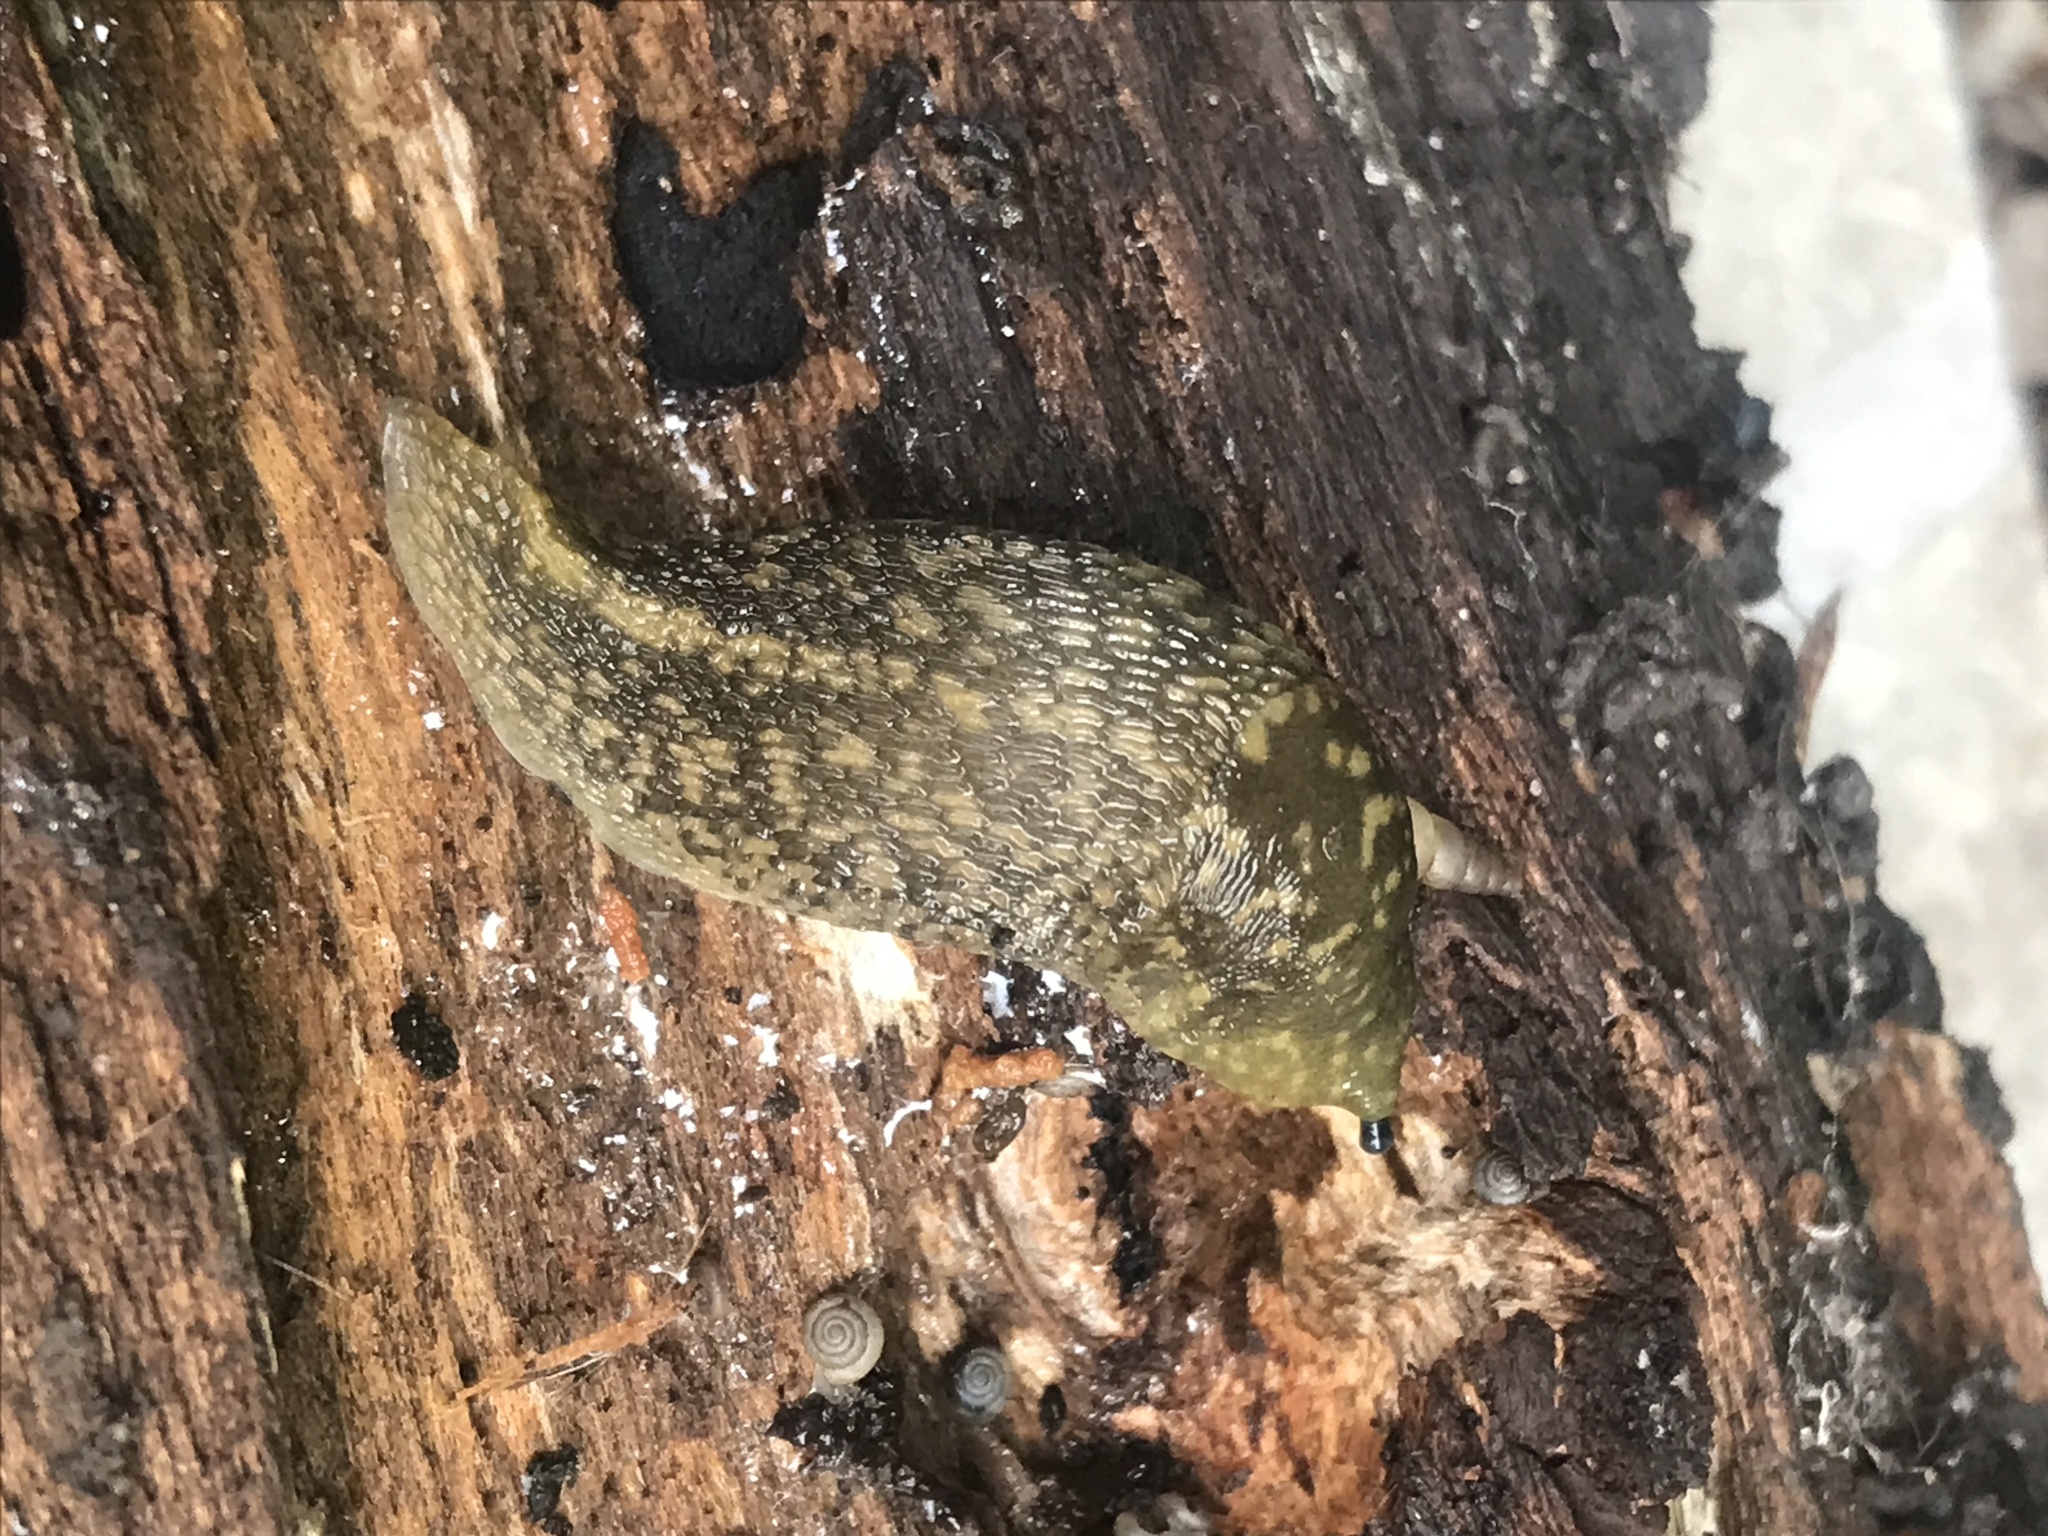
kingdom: Animalia
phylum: Mollusca
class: Gastropoda
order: Stylommatophora
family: Limacidae
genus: Limacus
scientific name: Limacus flavus
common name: Yellow gardenslug
